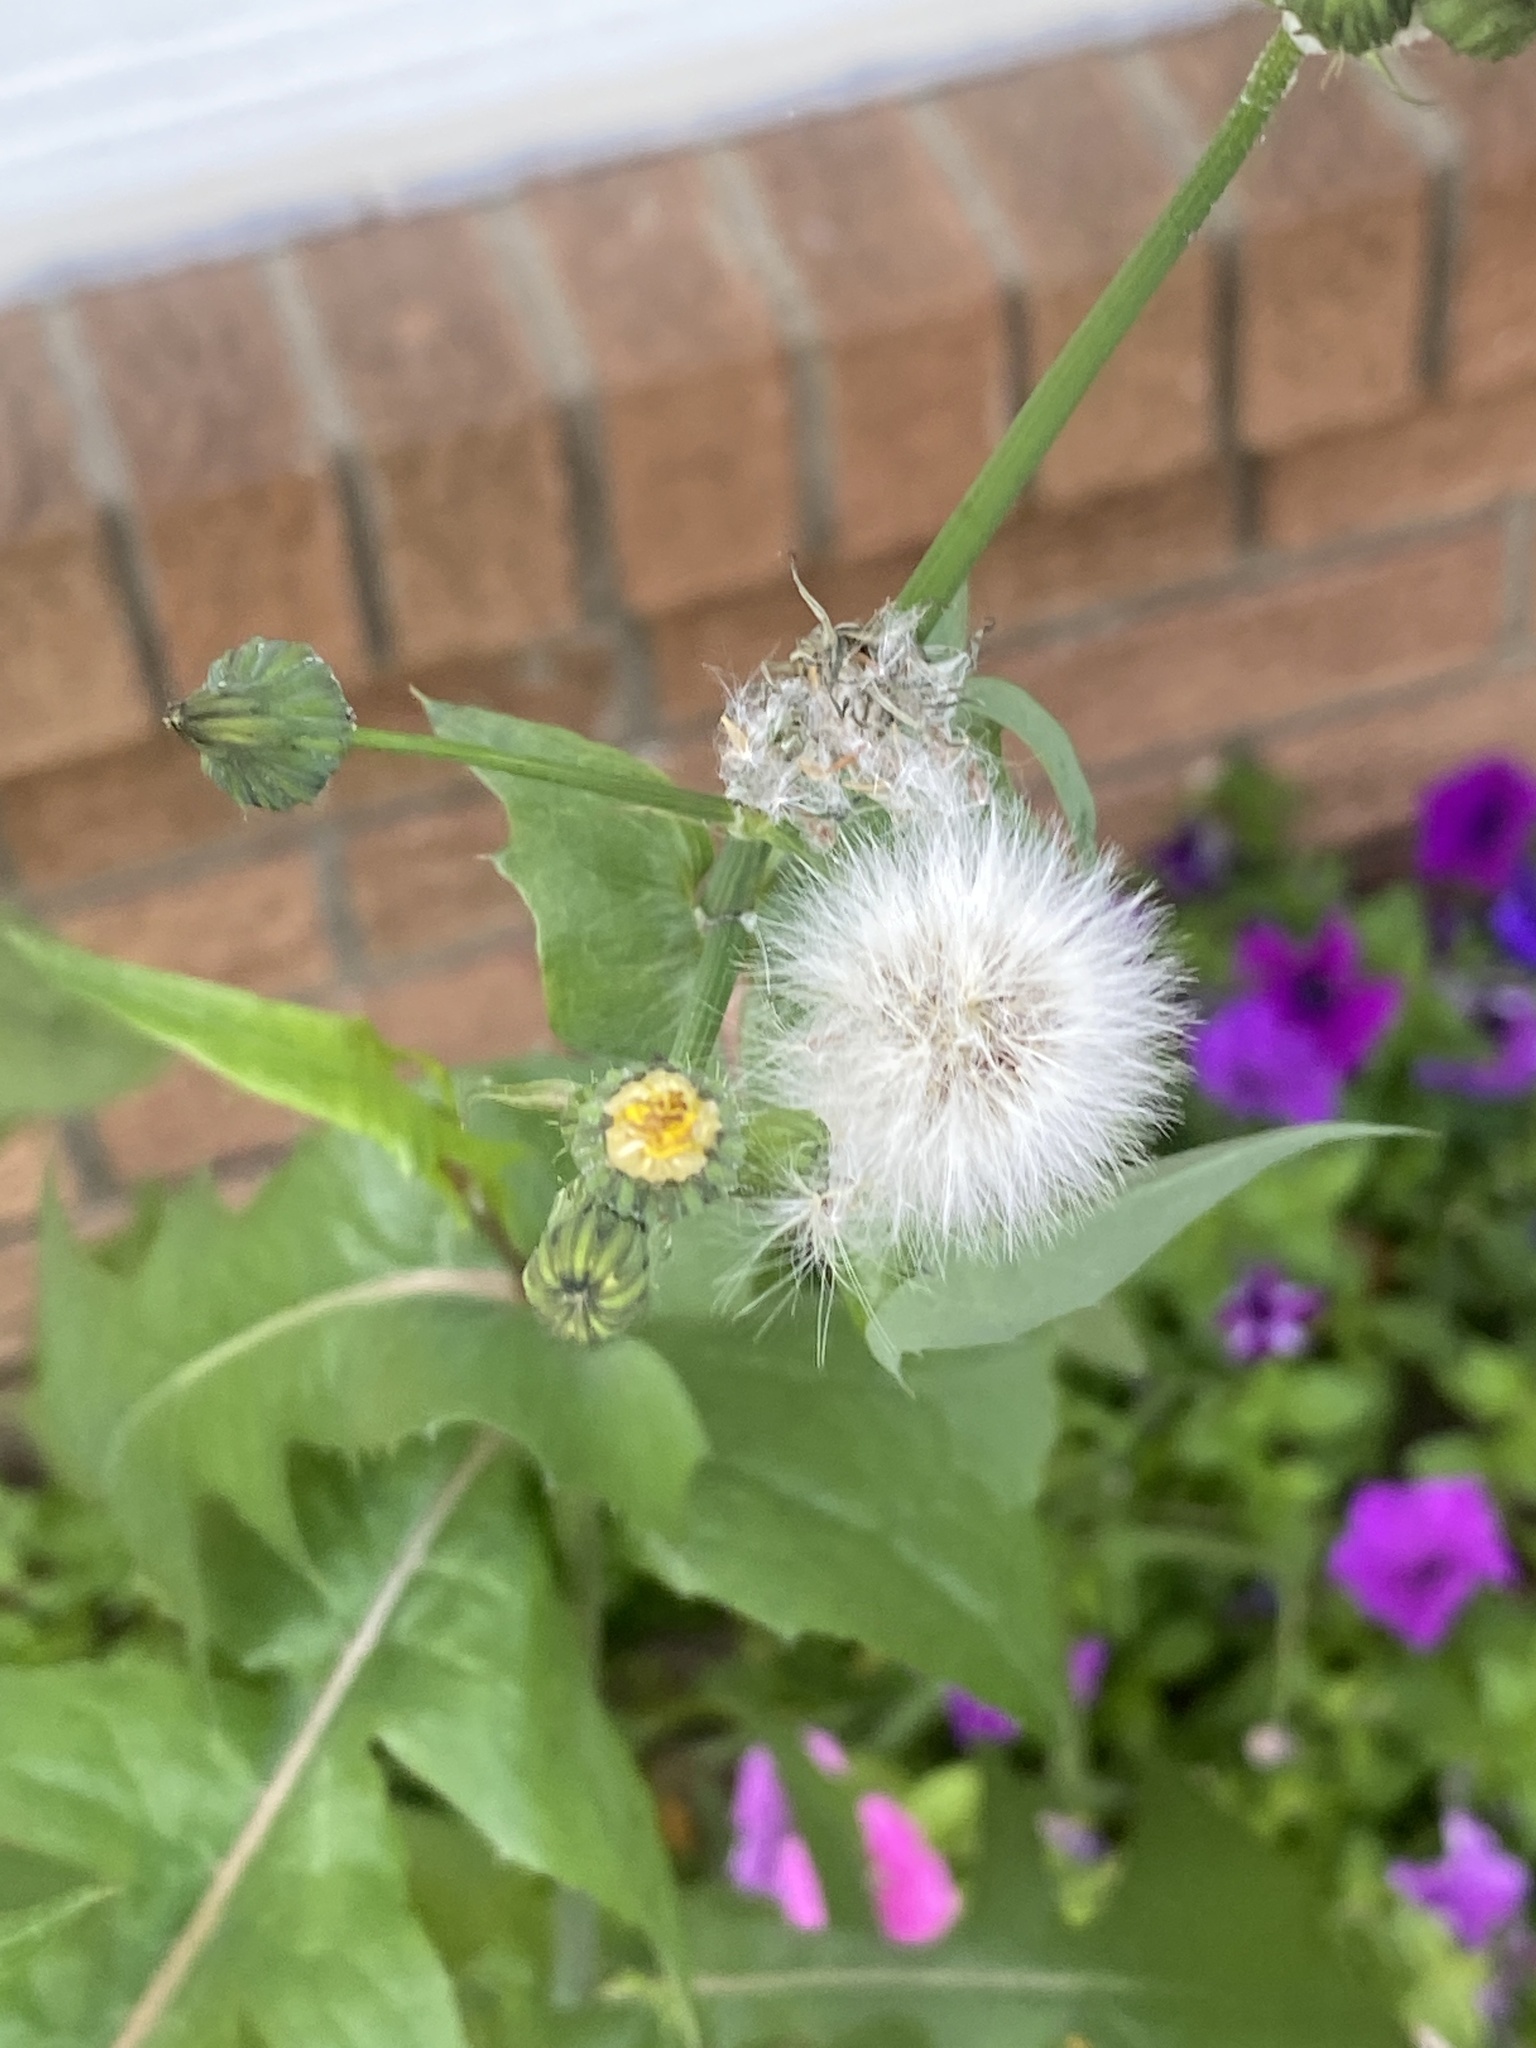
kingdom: Plantae
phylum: Tracheophyta
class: Magnoliopsida
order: Asterales
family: Asteraceae
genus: Sonchus
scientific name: Sonchus oleraceus
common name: Common sowthistle
